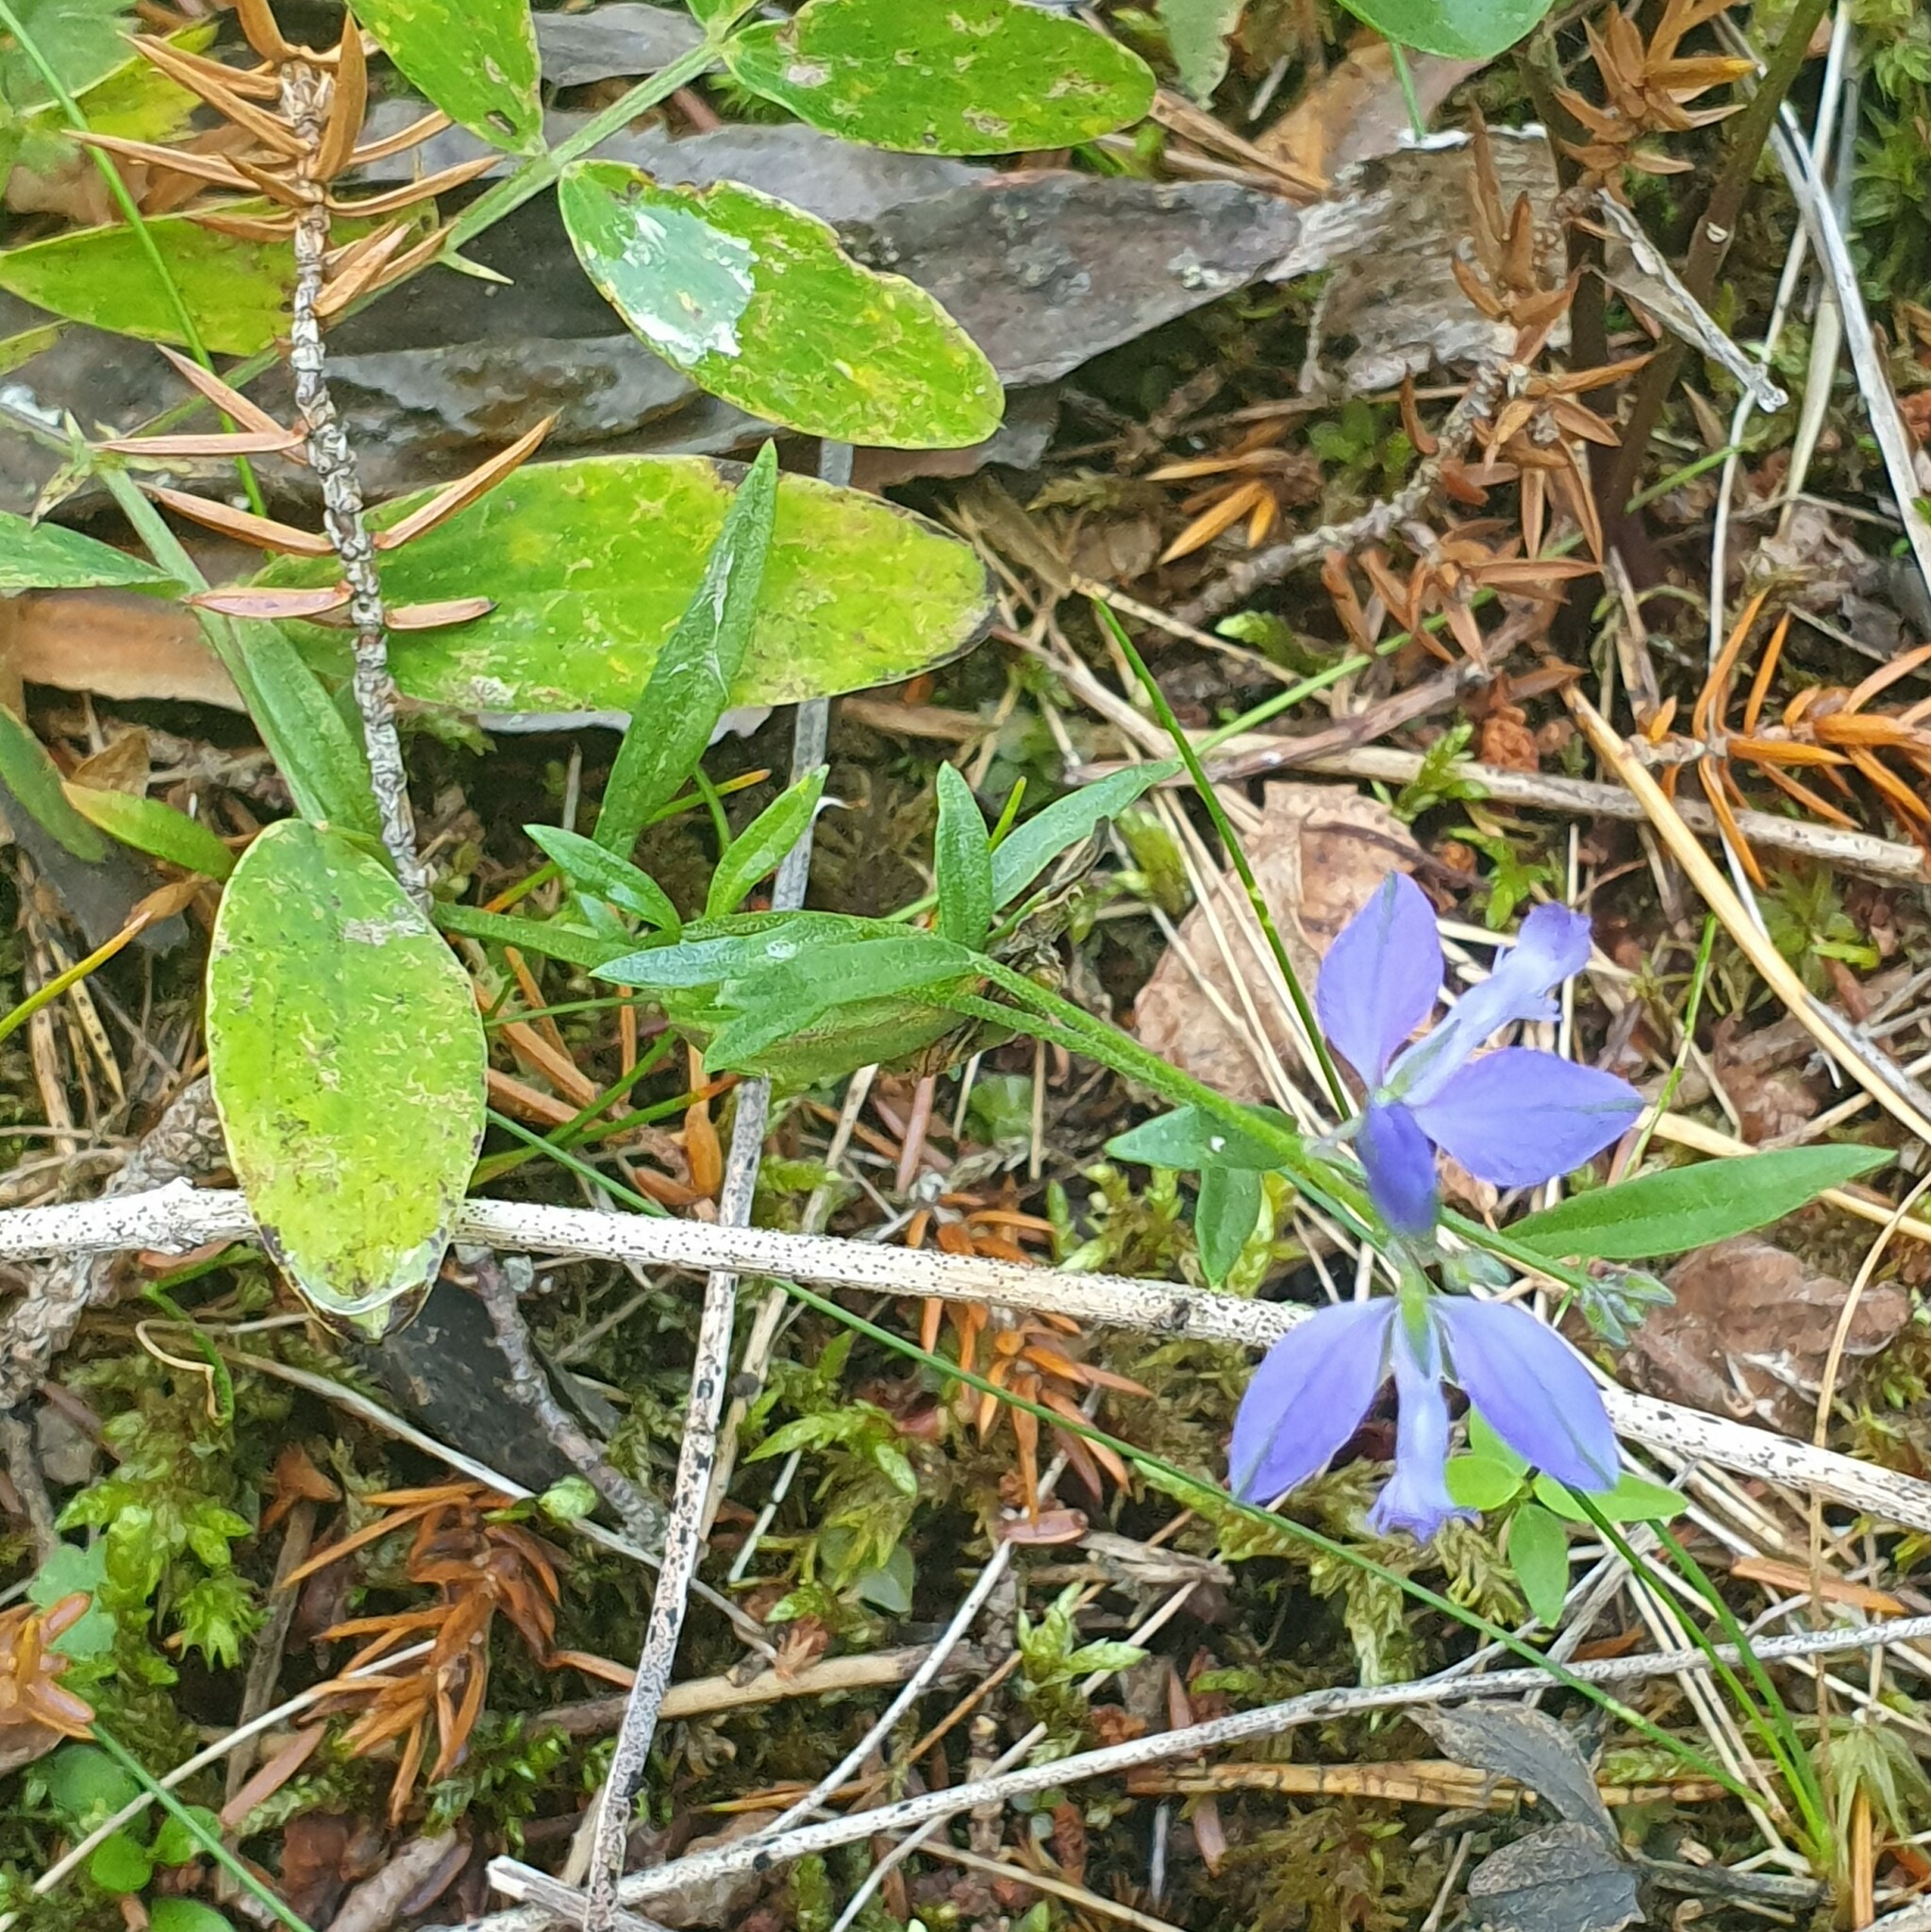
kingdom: Plantae
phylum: Tracheophyta
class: Magnoliopsida
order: Fabales
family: Polygalaceae
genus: Polygala
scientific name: Polygala vulgaris
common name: Common milkwort
